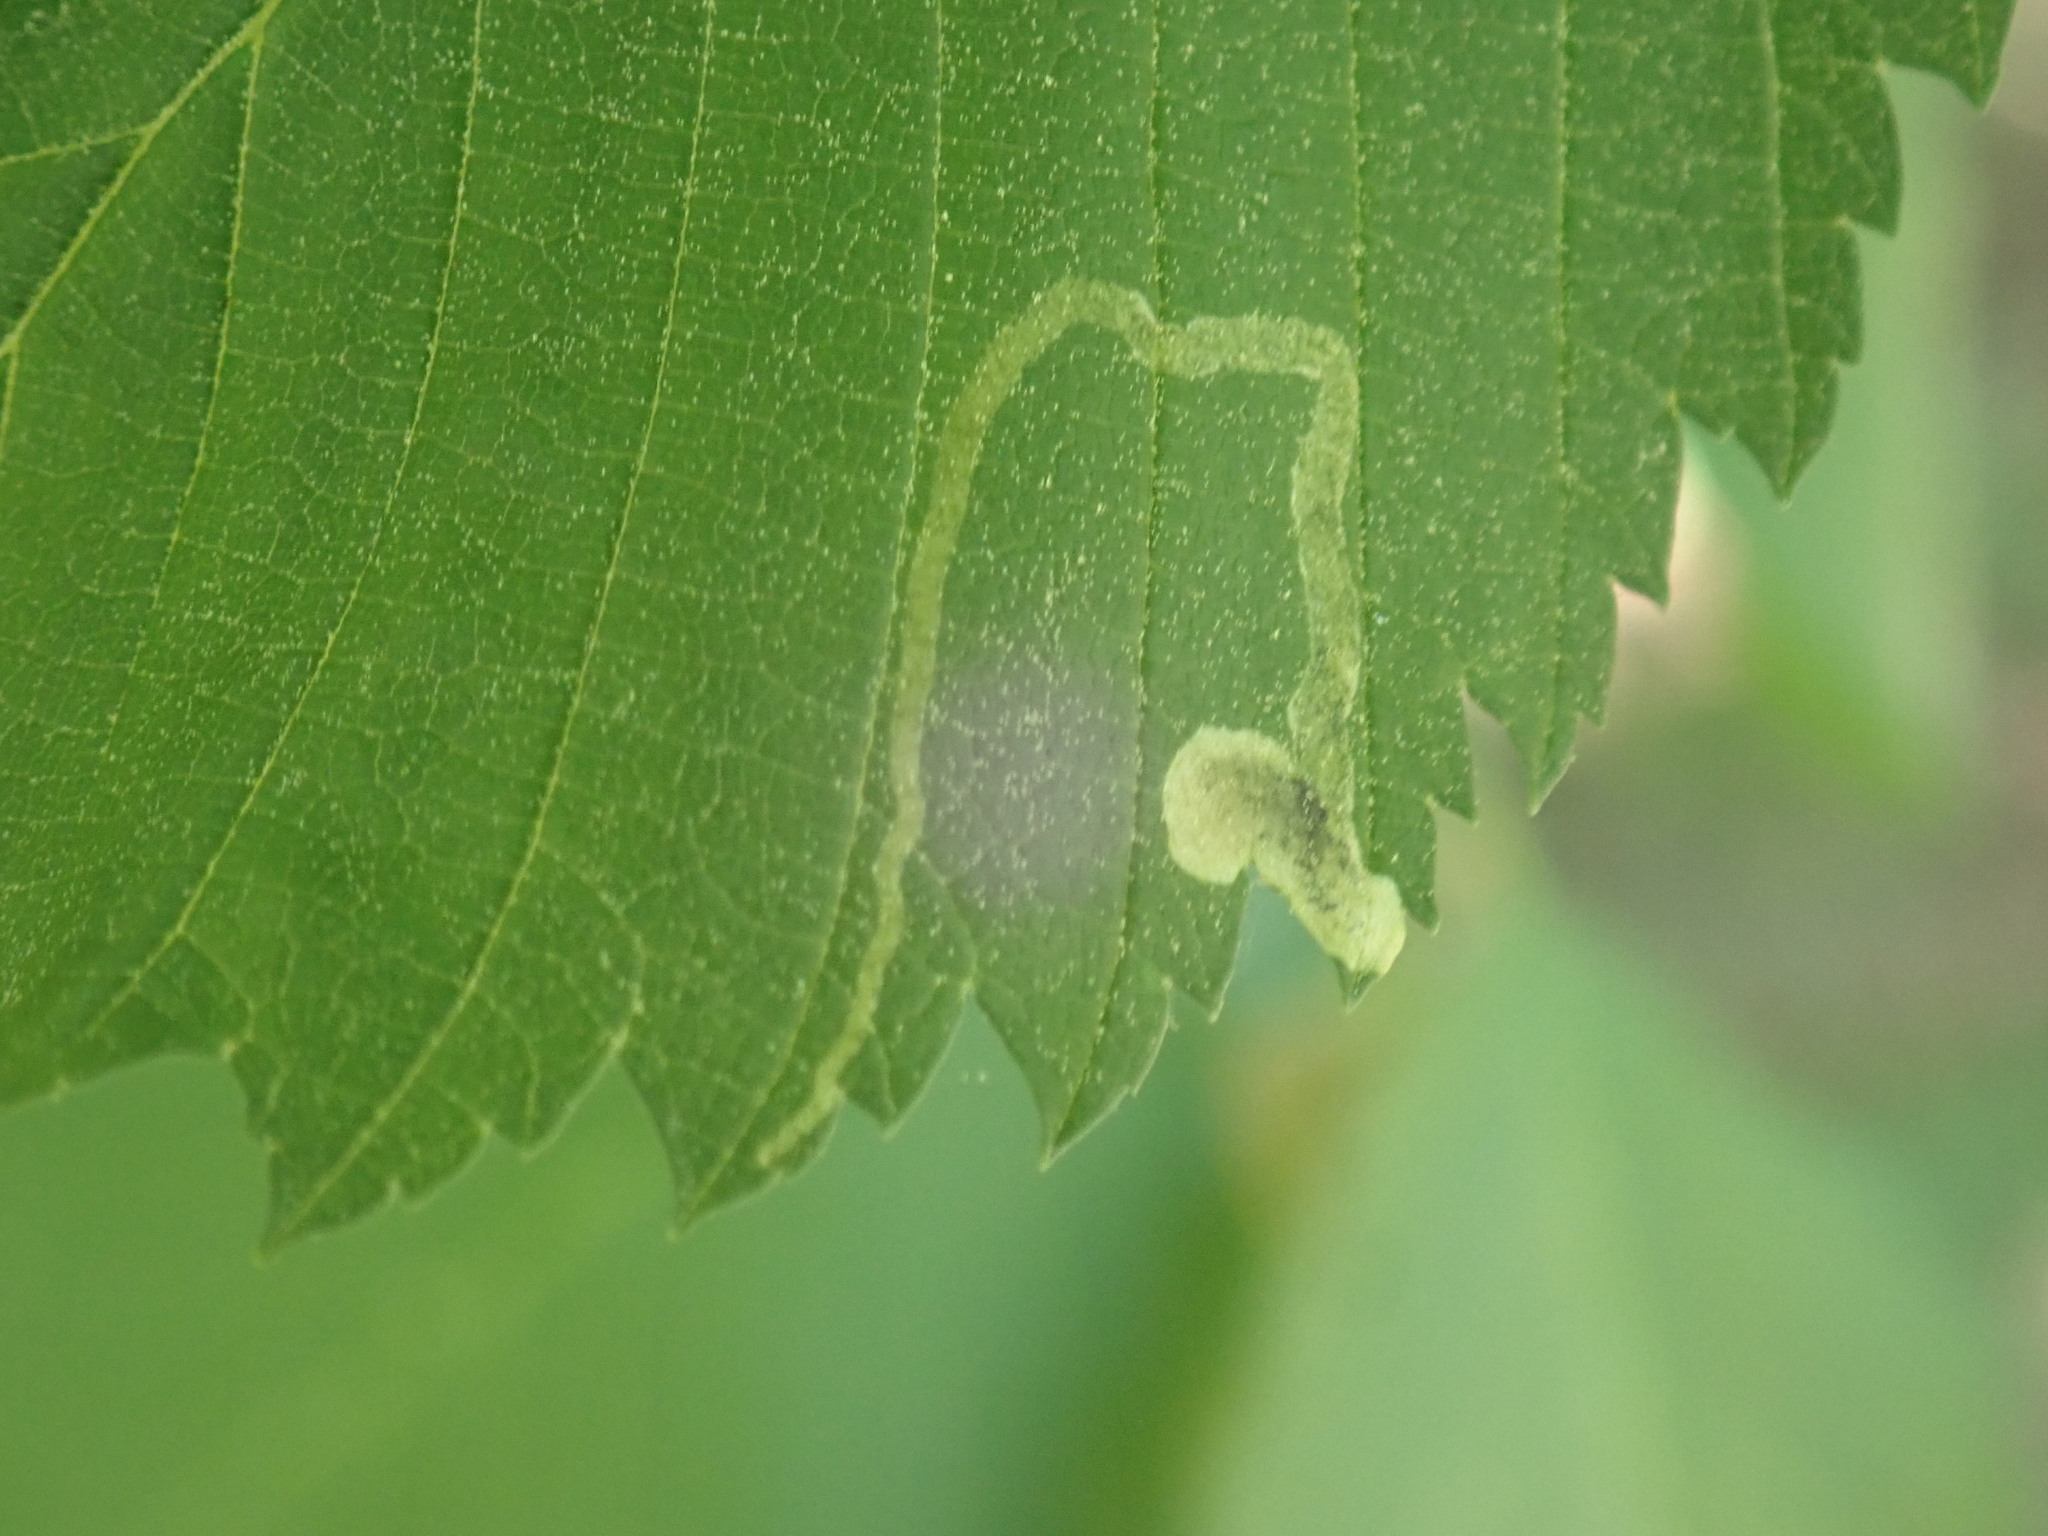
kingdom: Animalia
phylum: Arthropoda
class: Insecta
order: Diptera
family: Agromyzidae
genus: Agromyza
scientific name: Agromyza aristata
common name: Elm agromyzid leafminer
